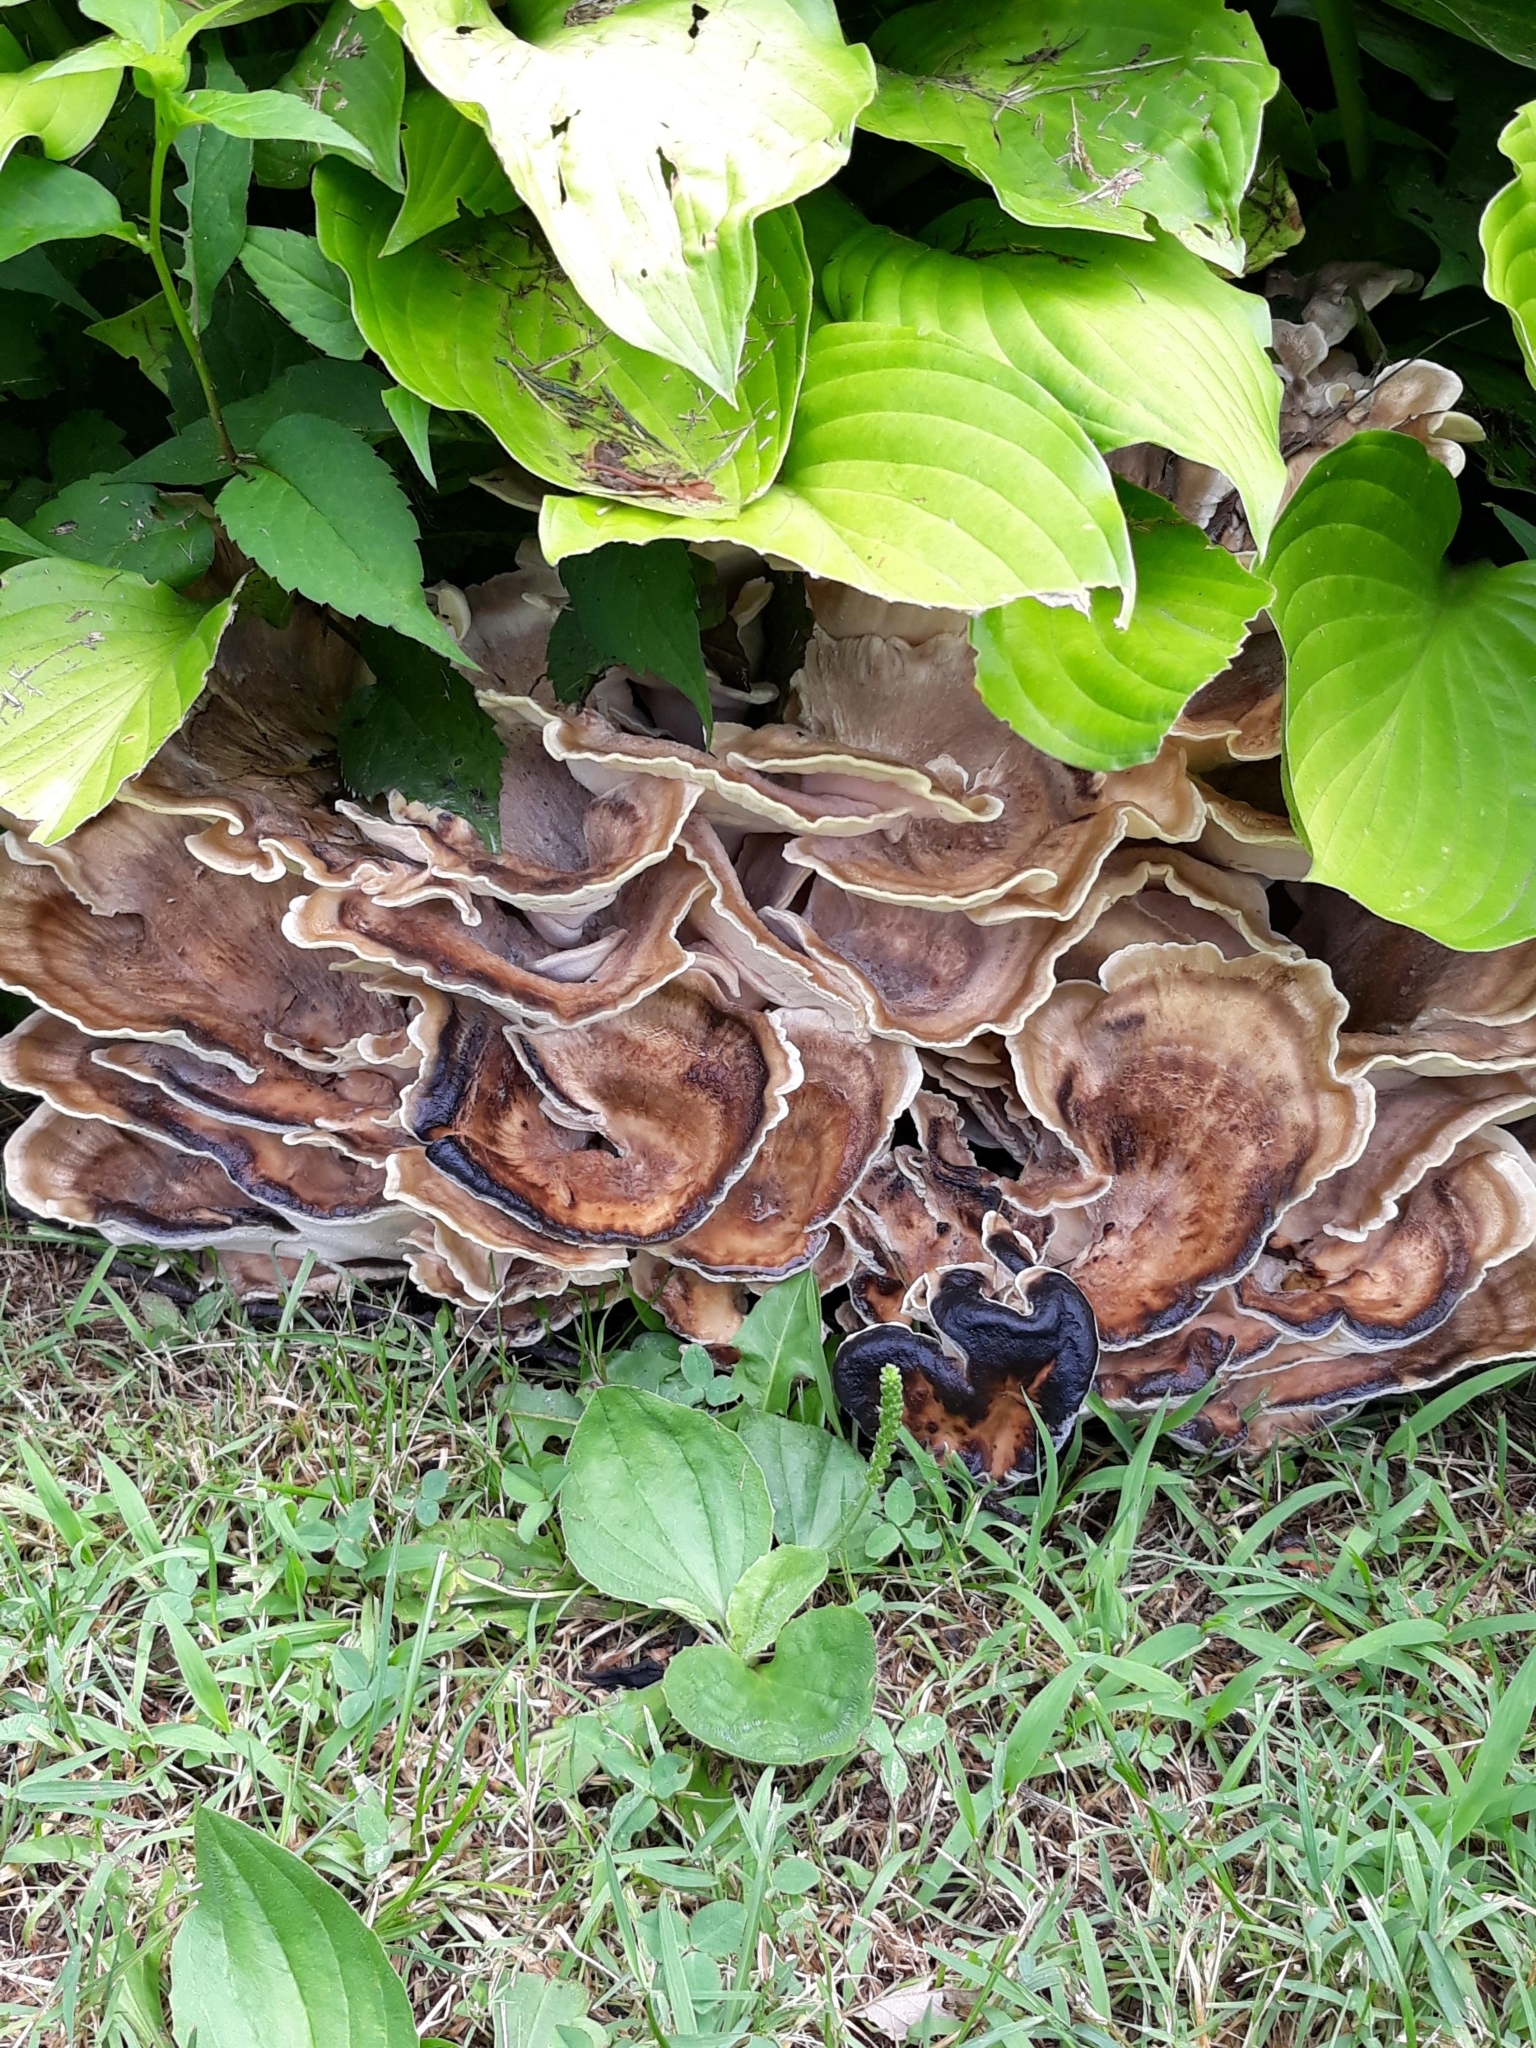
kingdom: Fungi
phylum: Basidiomycota
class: Agaricomycetes
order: Polyporales
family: Meripilaceae
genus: Meripilus
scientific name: Meripilus sumstinei
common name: Black-staining polypore
